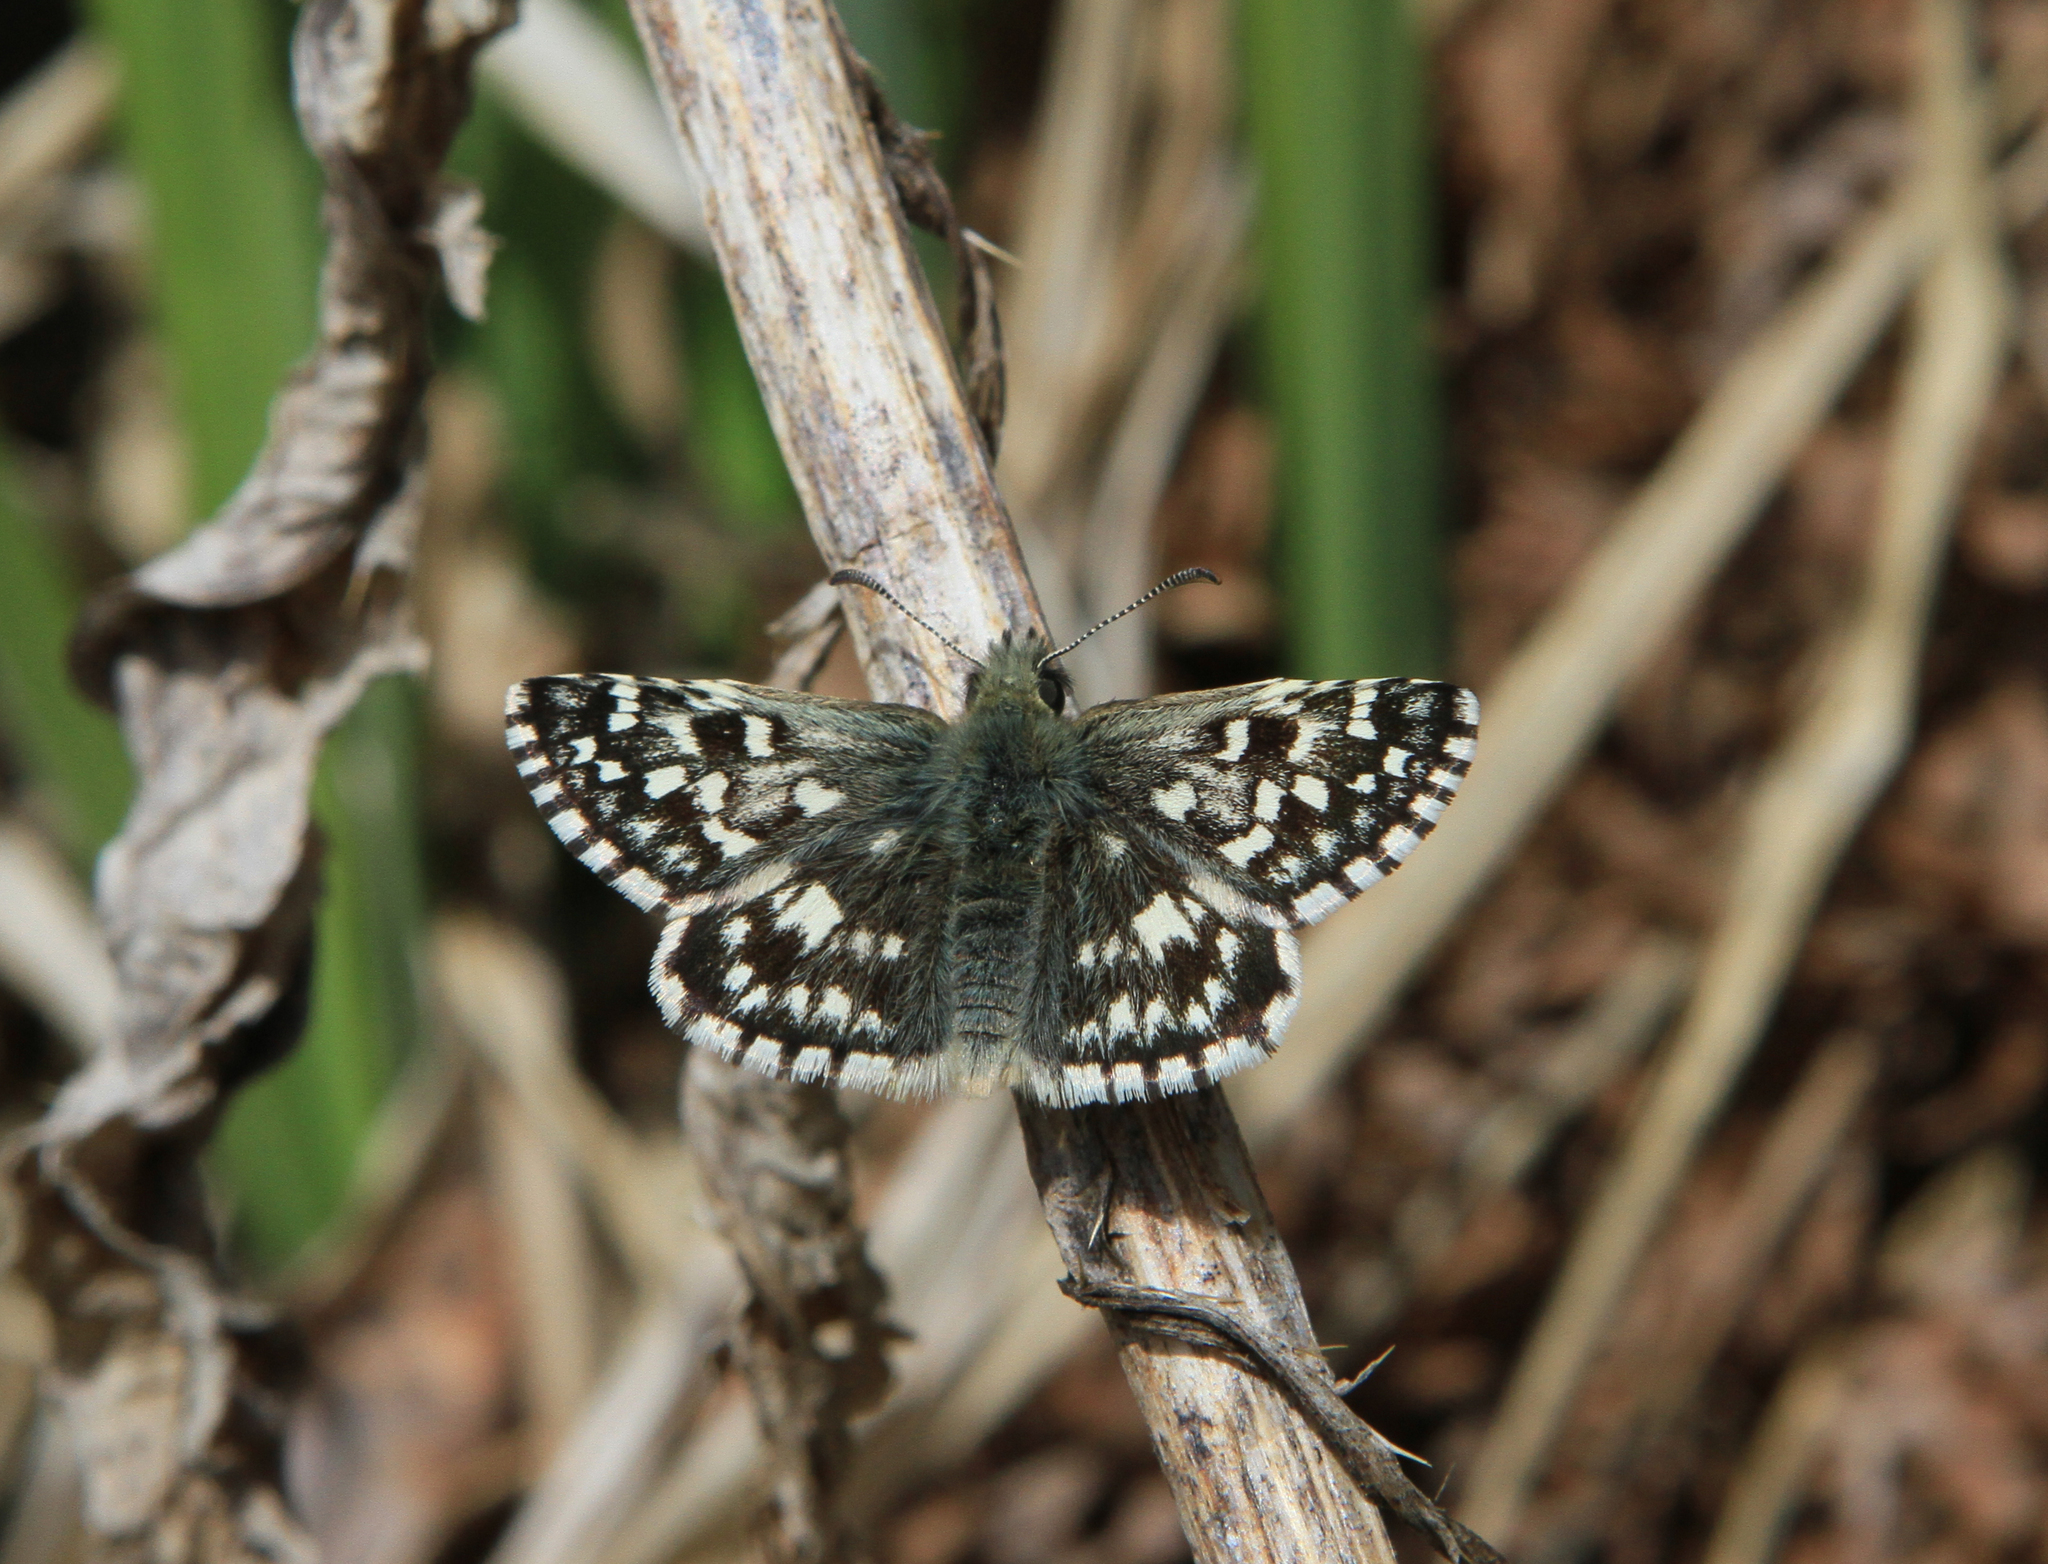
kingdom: Animalia
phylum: Arthropoda
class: Insecta
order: Lepidoptera
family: Hesperiidae
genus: Pyrgus
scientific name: Pyrgus malvae
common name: Grizzled skipper
